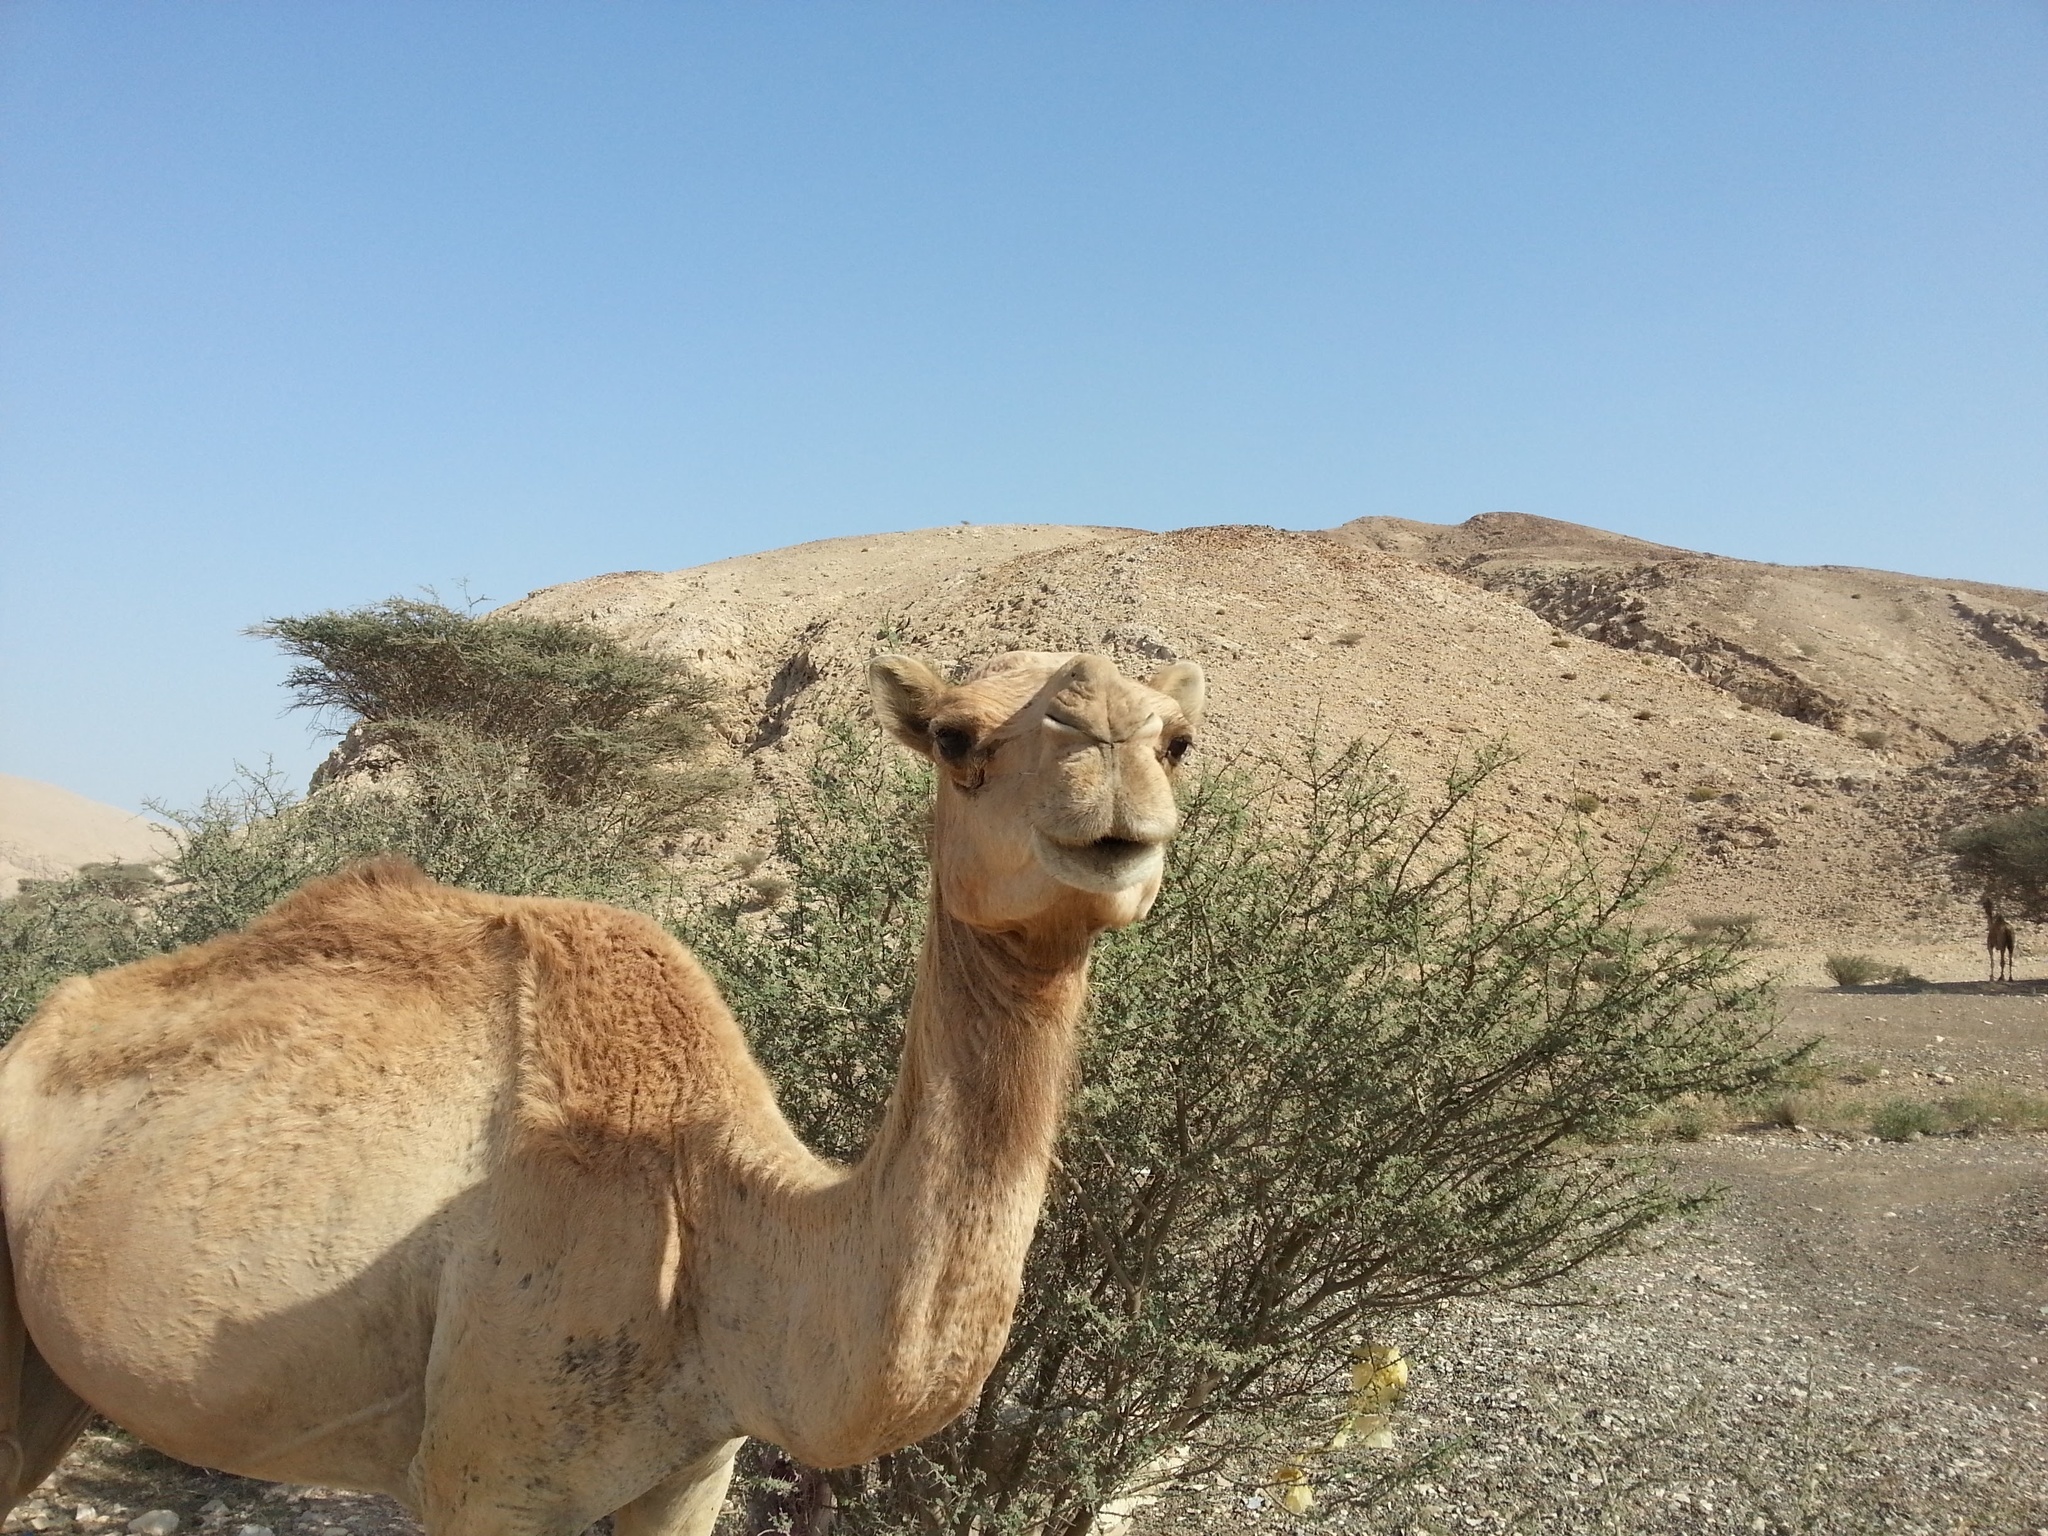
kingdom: Animalia
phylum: Chordata
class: Mammalia
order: Artiodactyla
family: Camelidae
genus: Camelus
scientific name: Camelus dromedarius
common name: One-humped camel
